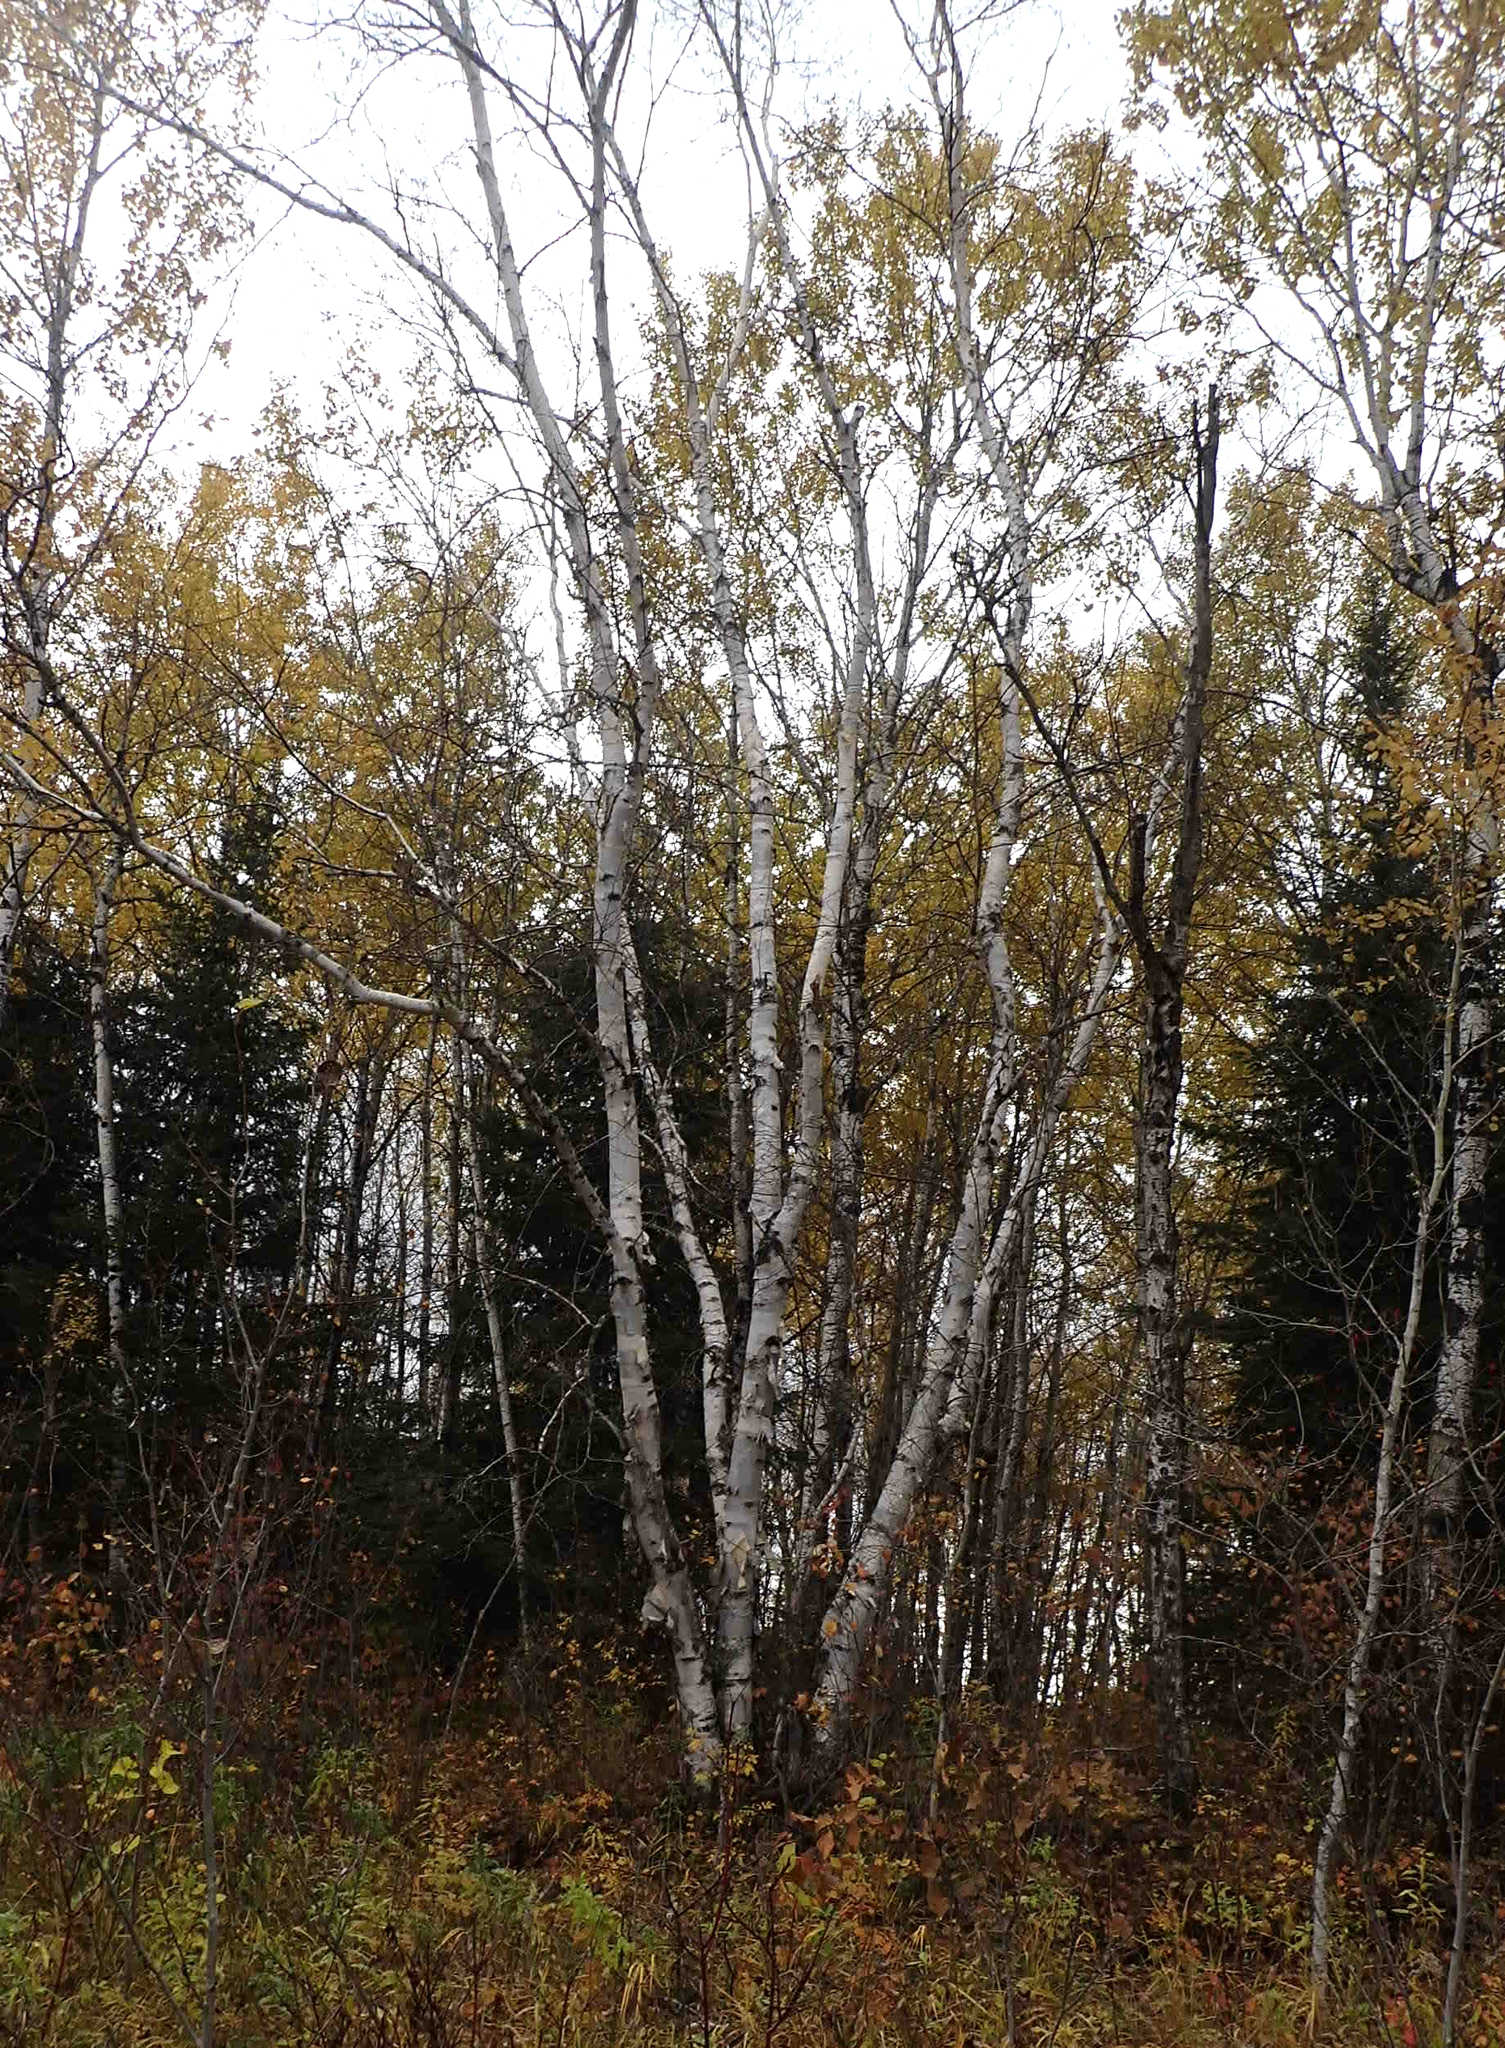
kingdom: Plantae
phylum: Tracheophyta
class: Magnoliopsida
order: Fagales
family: Betulaceae
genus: Betula
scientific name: Betula papyrifera
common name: Paper birch
